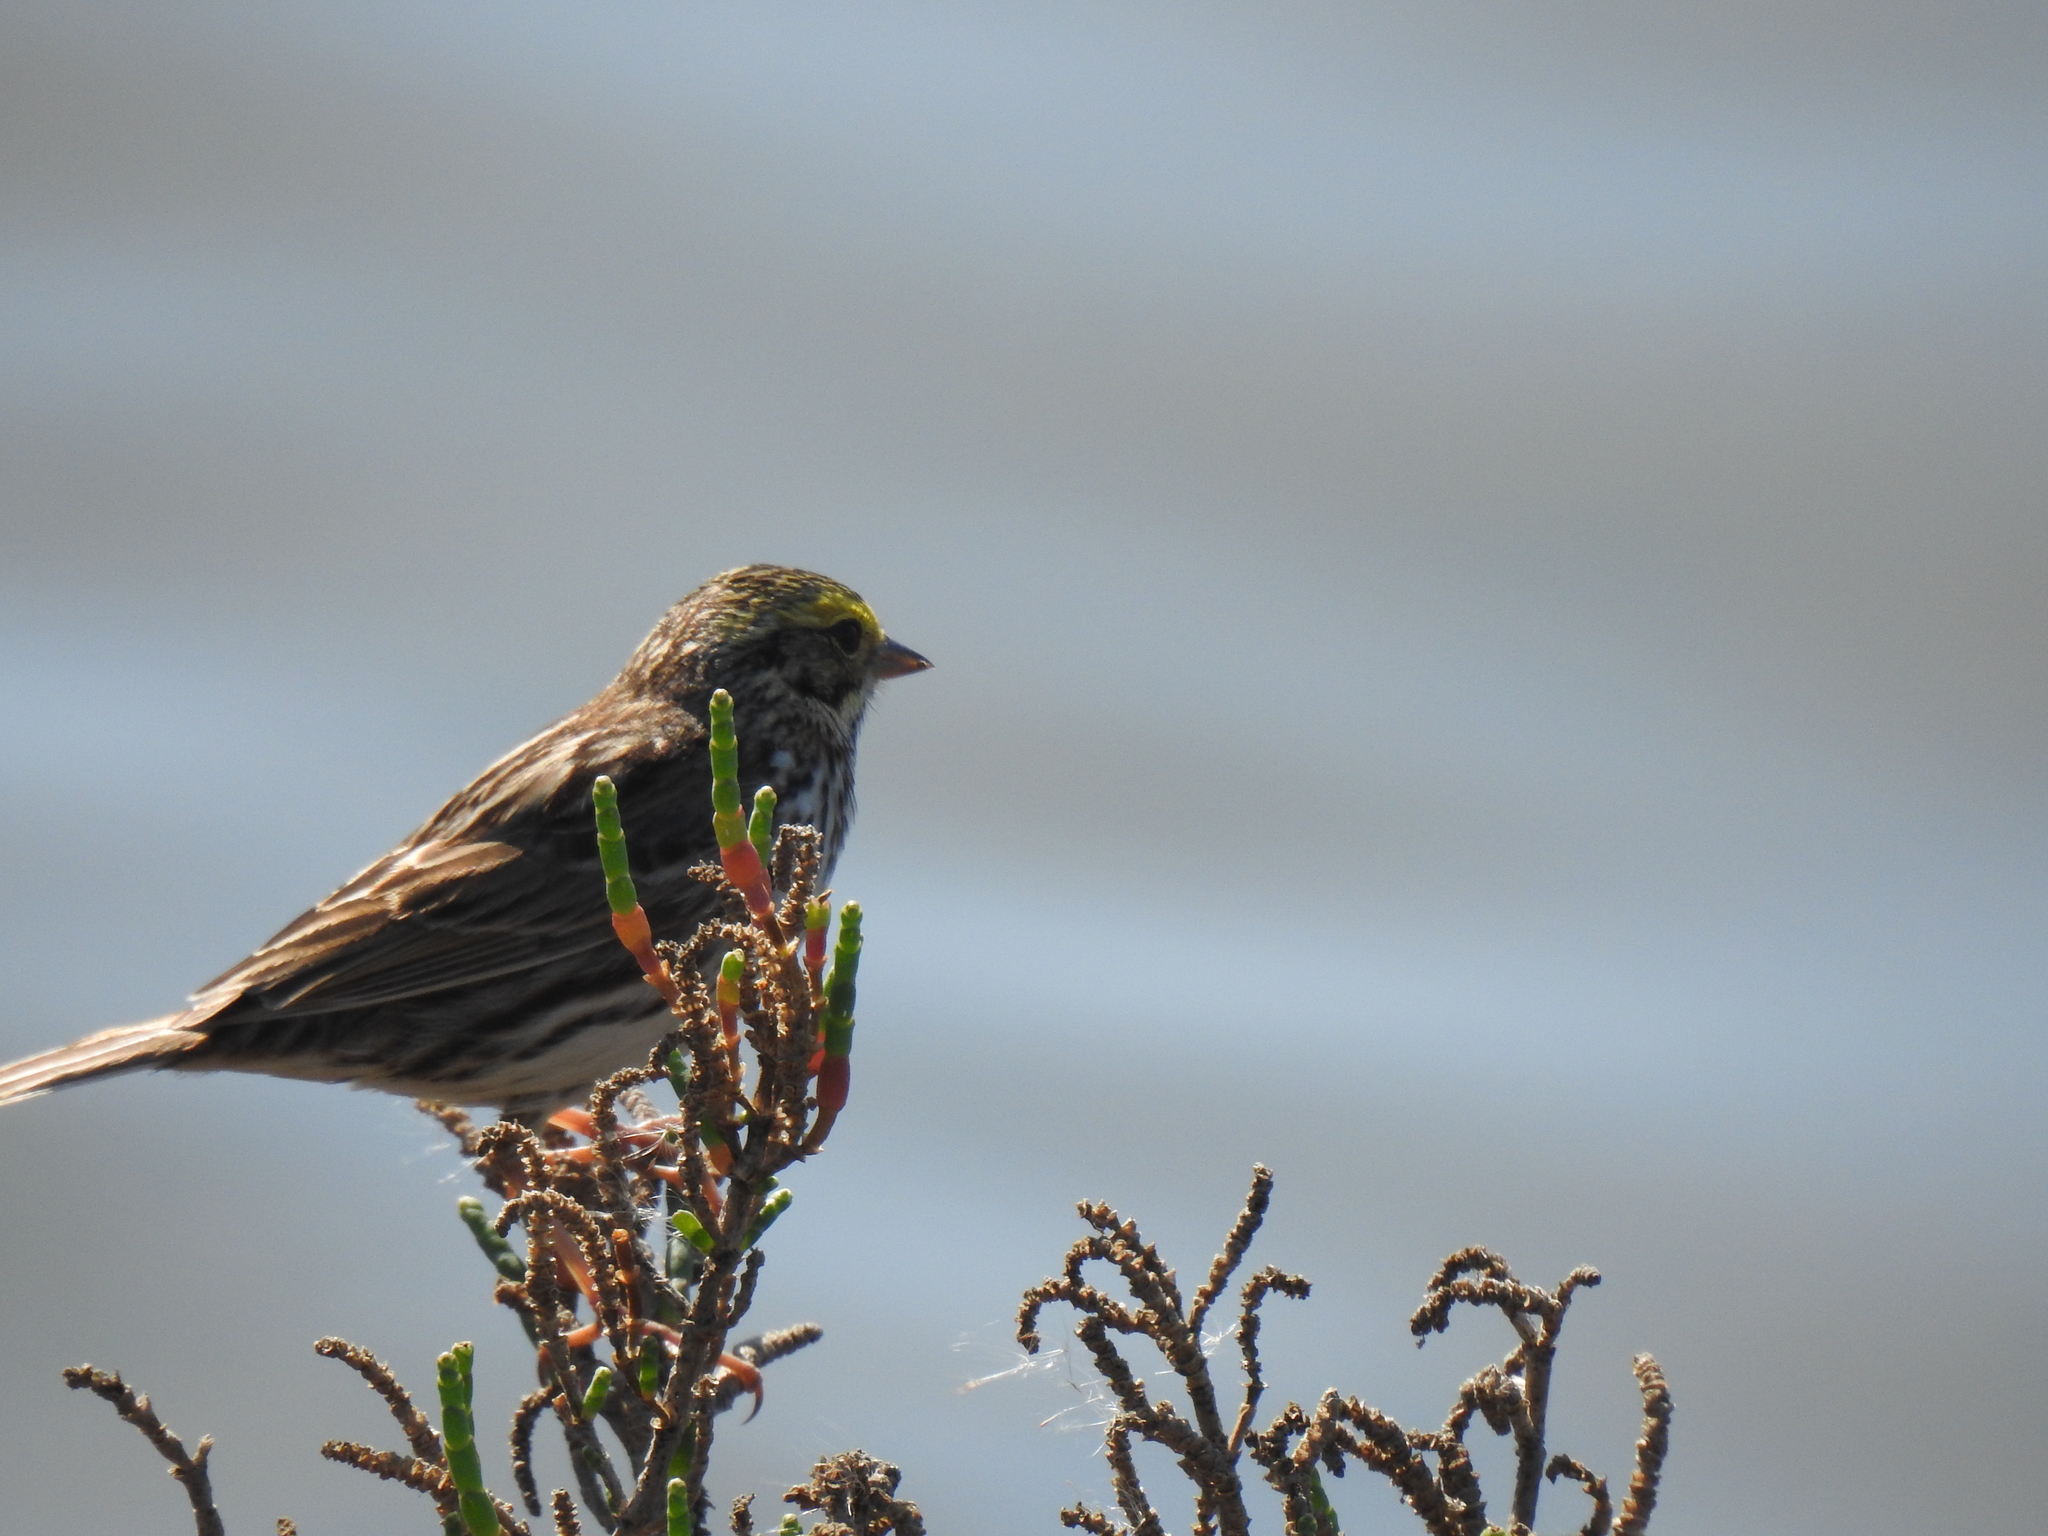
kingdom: Animalia
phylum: Chordata
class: Aves
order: Passeriformes
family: Passerellidae
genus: Passerculus
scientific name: Passerculus sandwichensis
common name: Savannah sparrow
